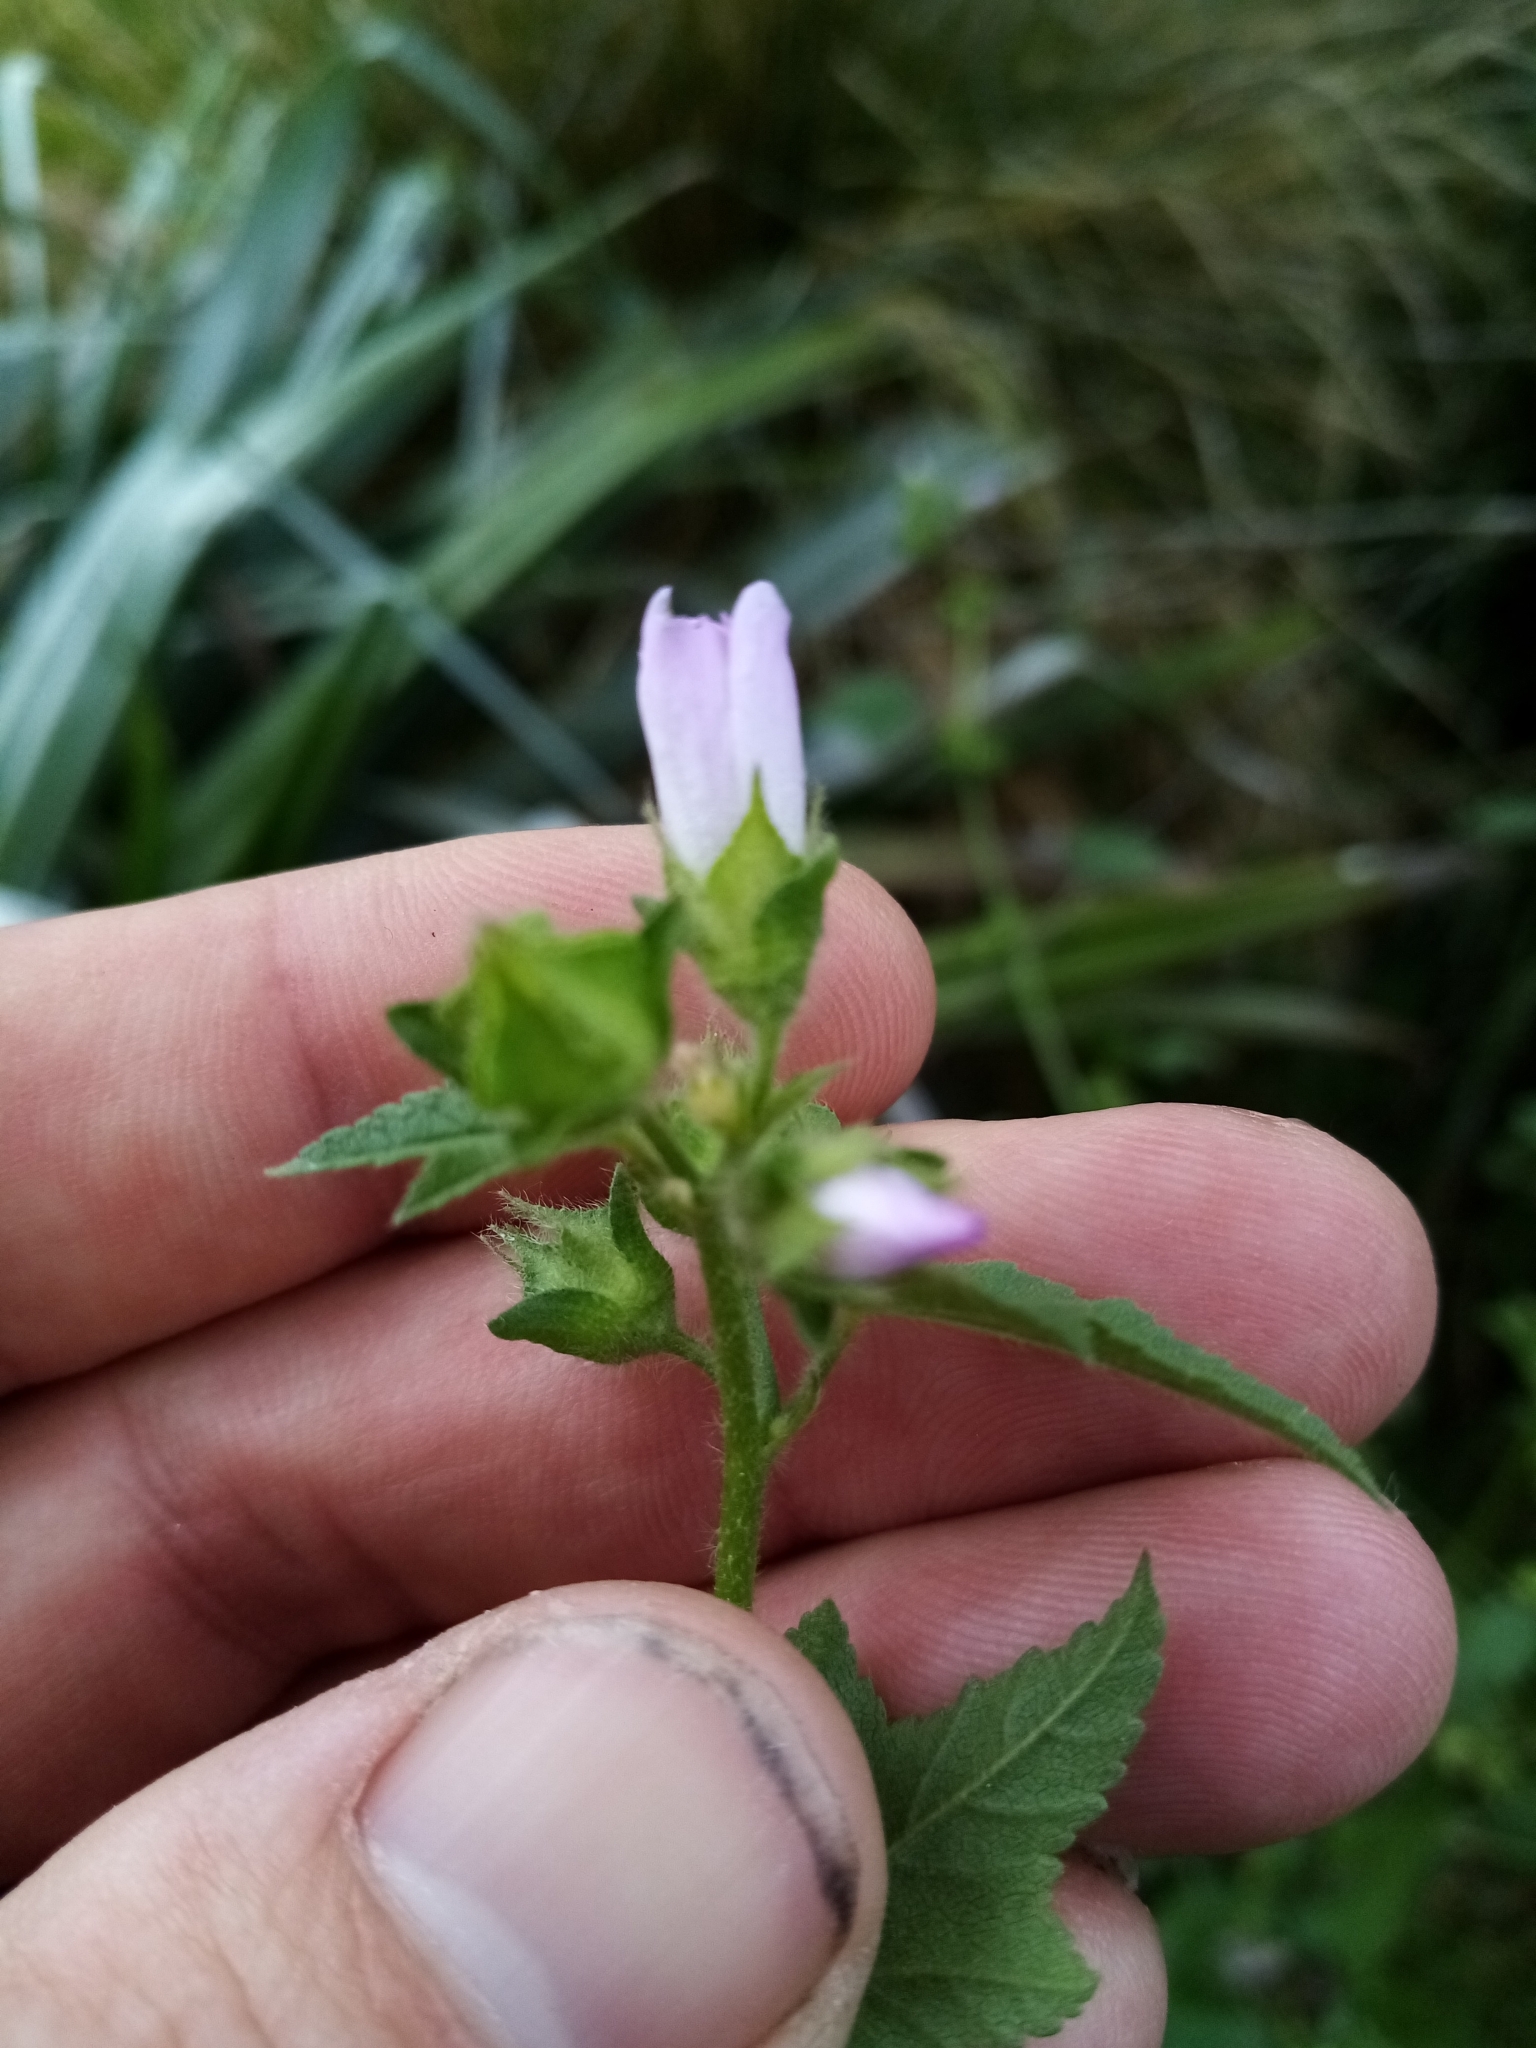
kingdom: Plantae
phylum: Tracheophyta
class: Magnoliopsida
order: Malvales
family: Malvaceae
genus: Malva
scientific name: Malva multiflora
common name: Cheeseweed
